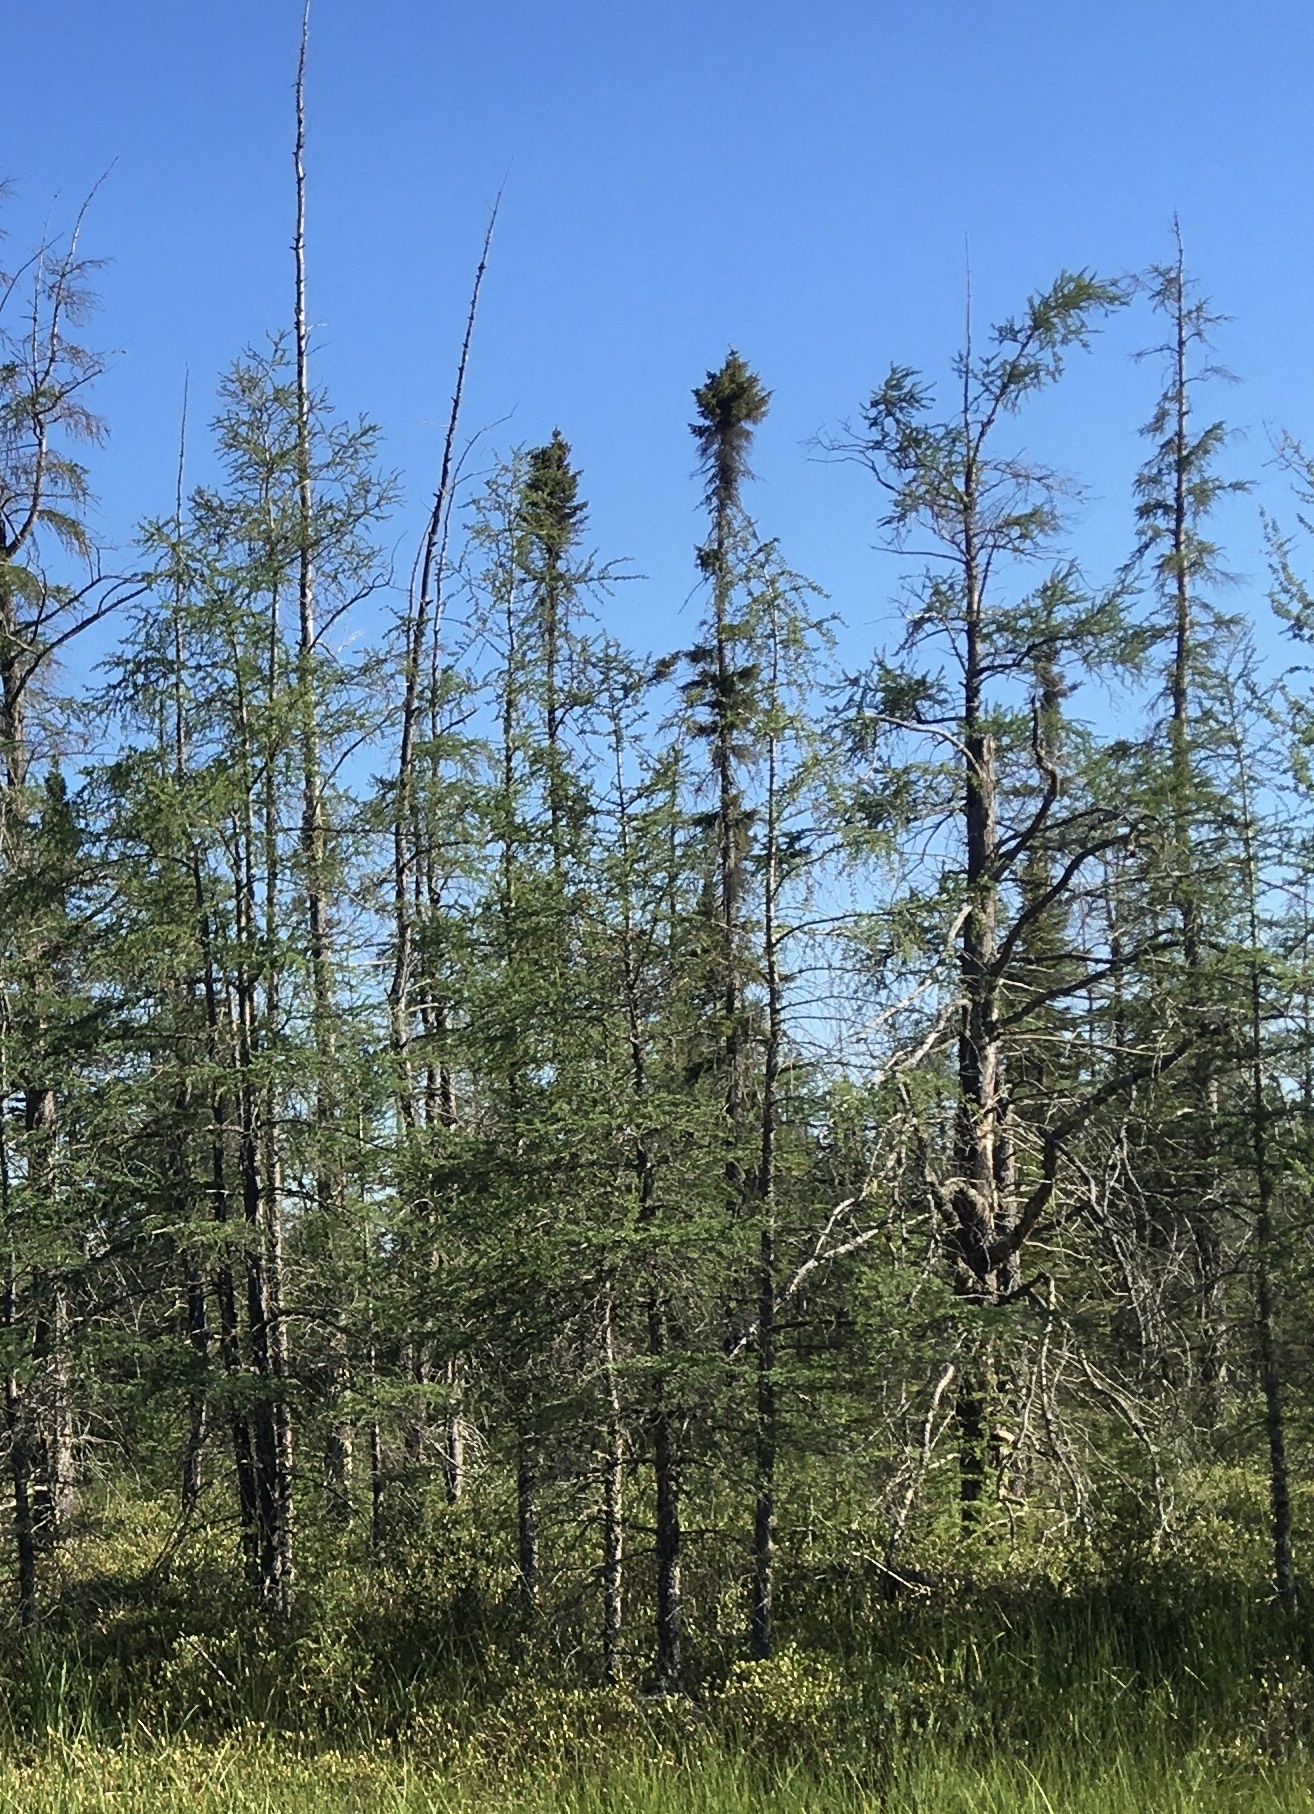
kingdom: Plantae
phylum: Tracheophyta
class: Pinopsida
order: Pinales
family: Pinaceae
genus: Picea
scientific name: Picea mariana
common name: Black spruce
